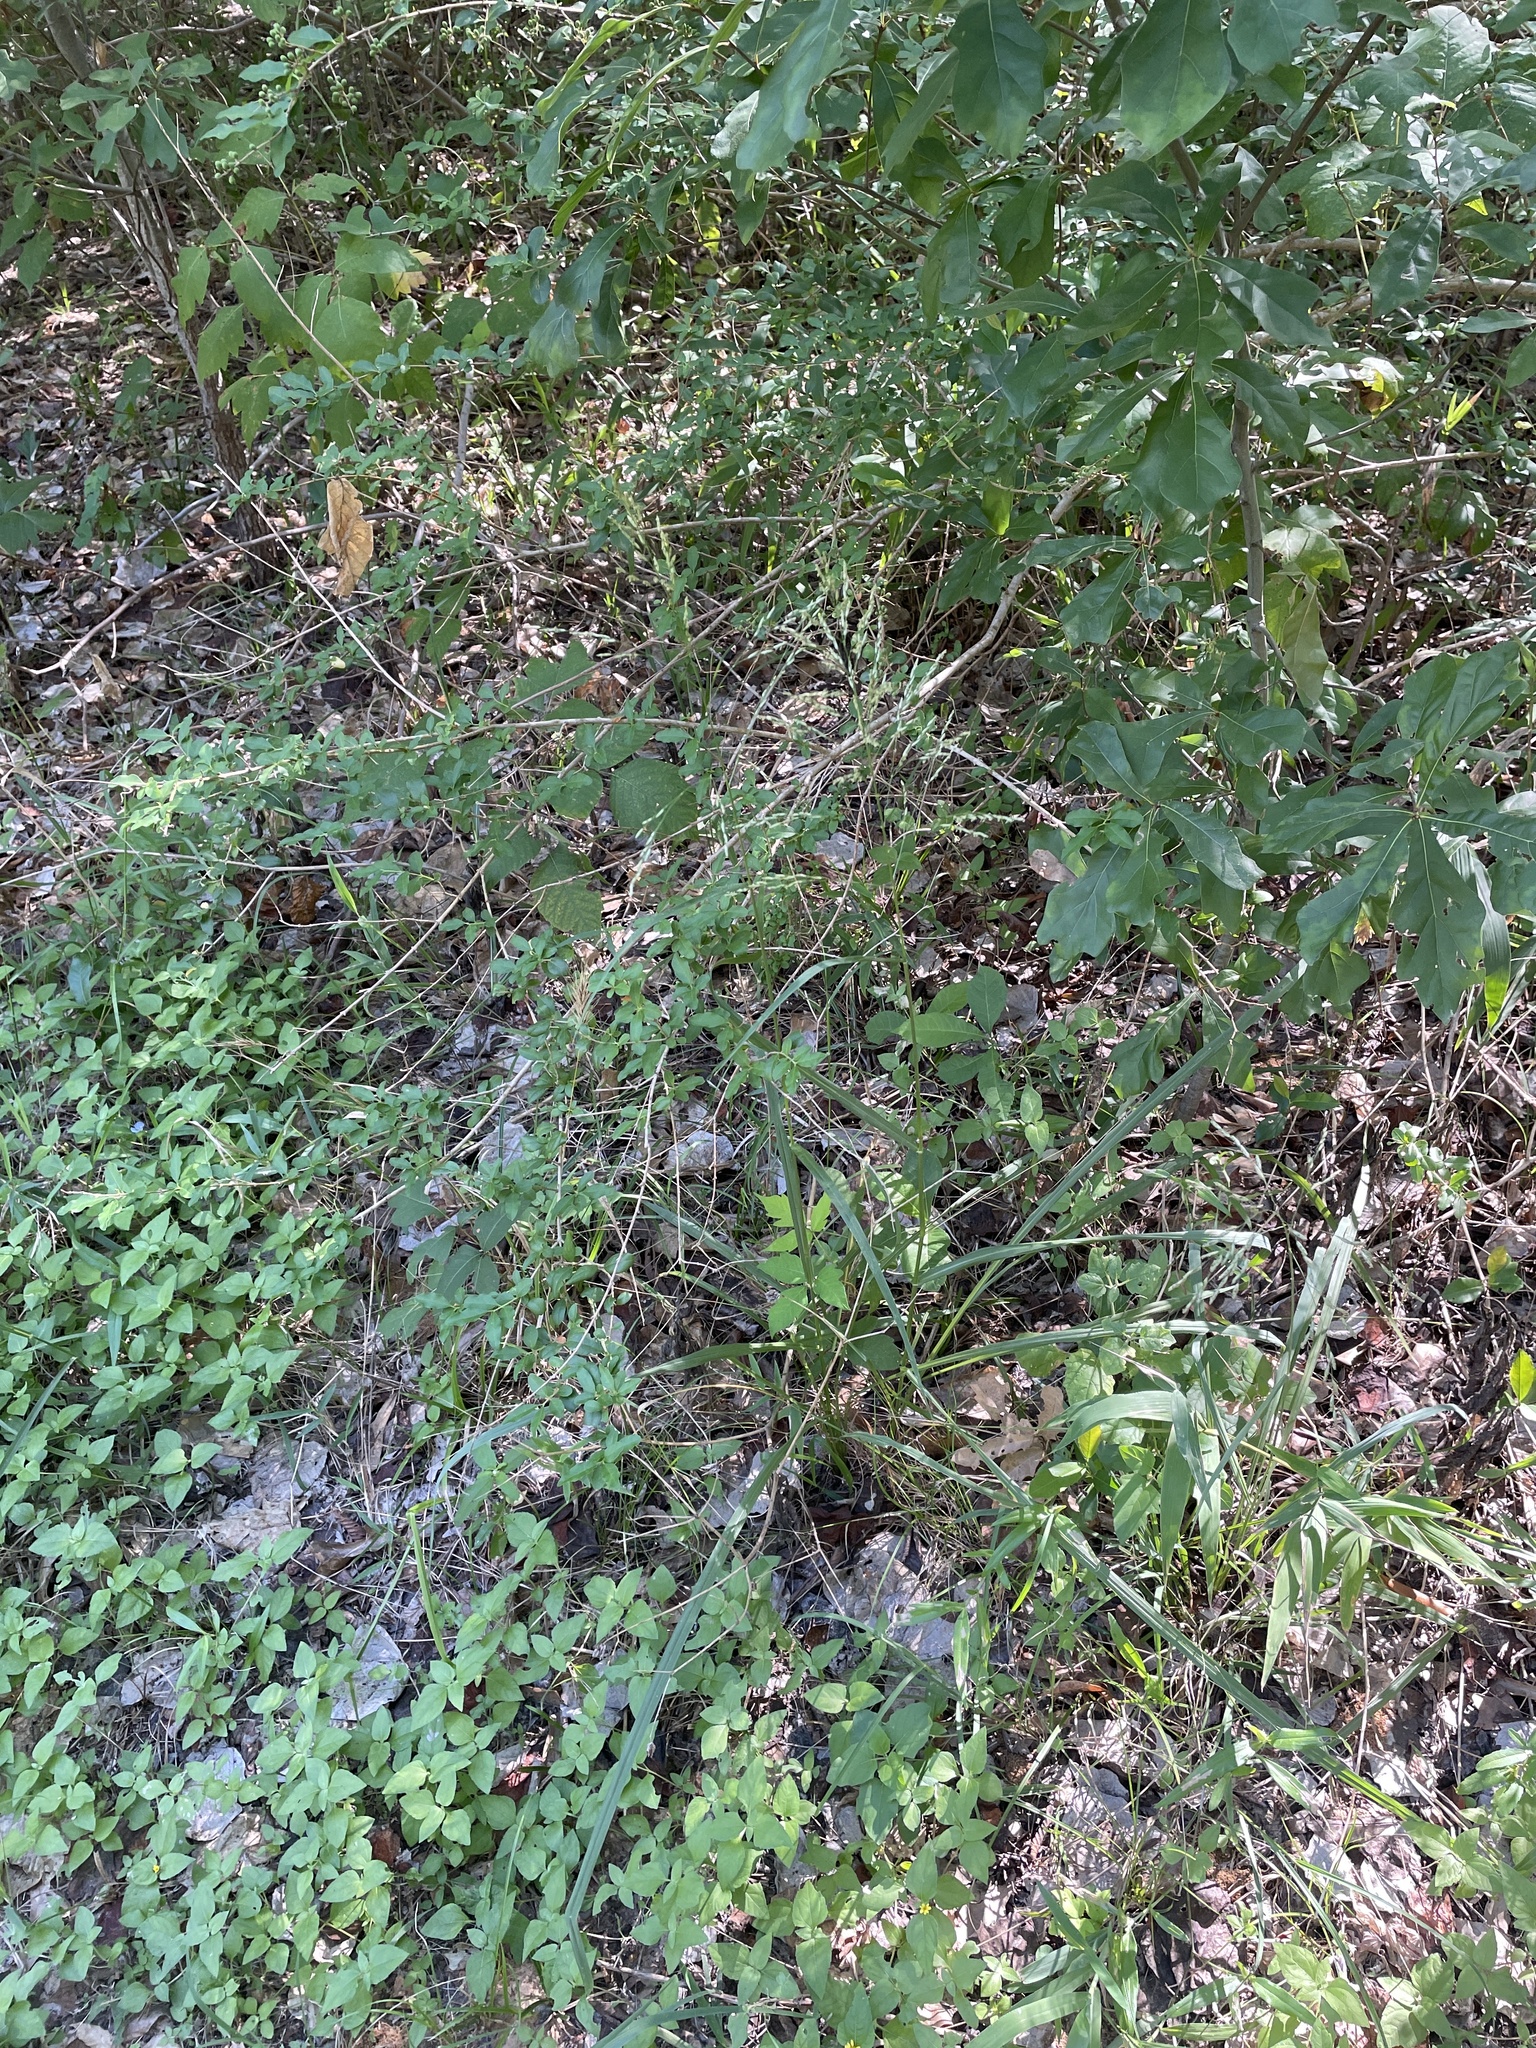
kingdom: Plantae
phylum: Tracheophyta
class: Liliopsida
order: Poales
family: Poaceae
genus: Tridens
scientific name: Tridens flavus
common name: Purpletop
